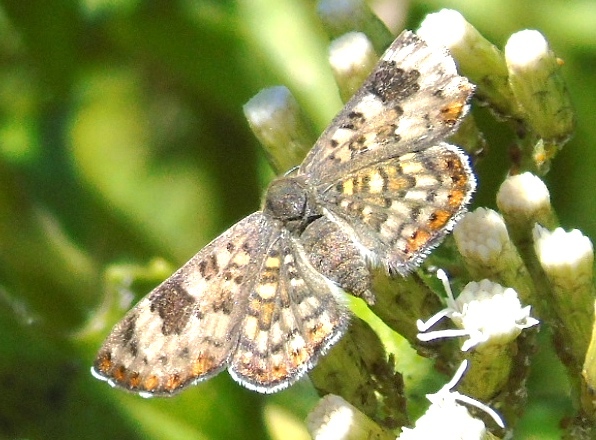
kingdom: Animalia
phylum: Arthropoda
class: Insecta
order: Lepidoptera
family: Riodinidae
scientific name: Riodinidae
